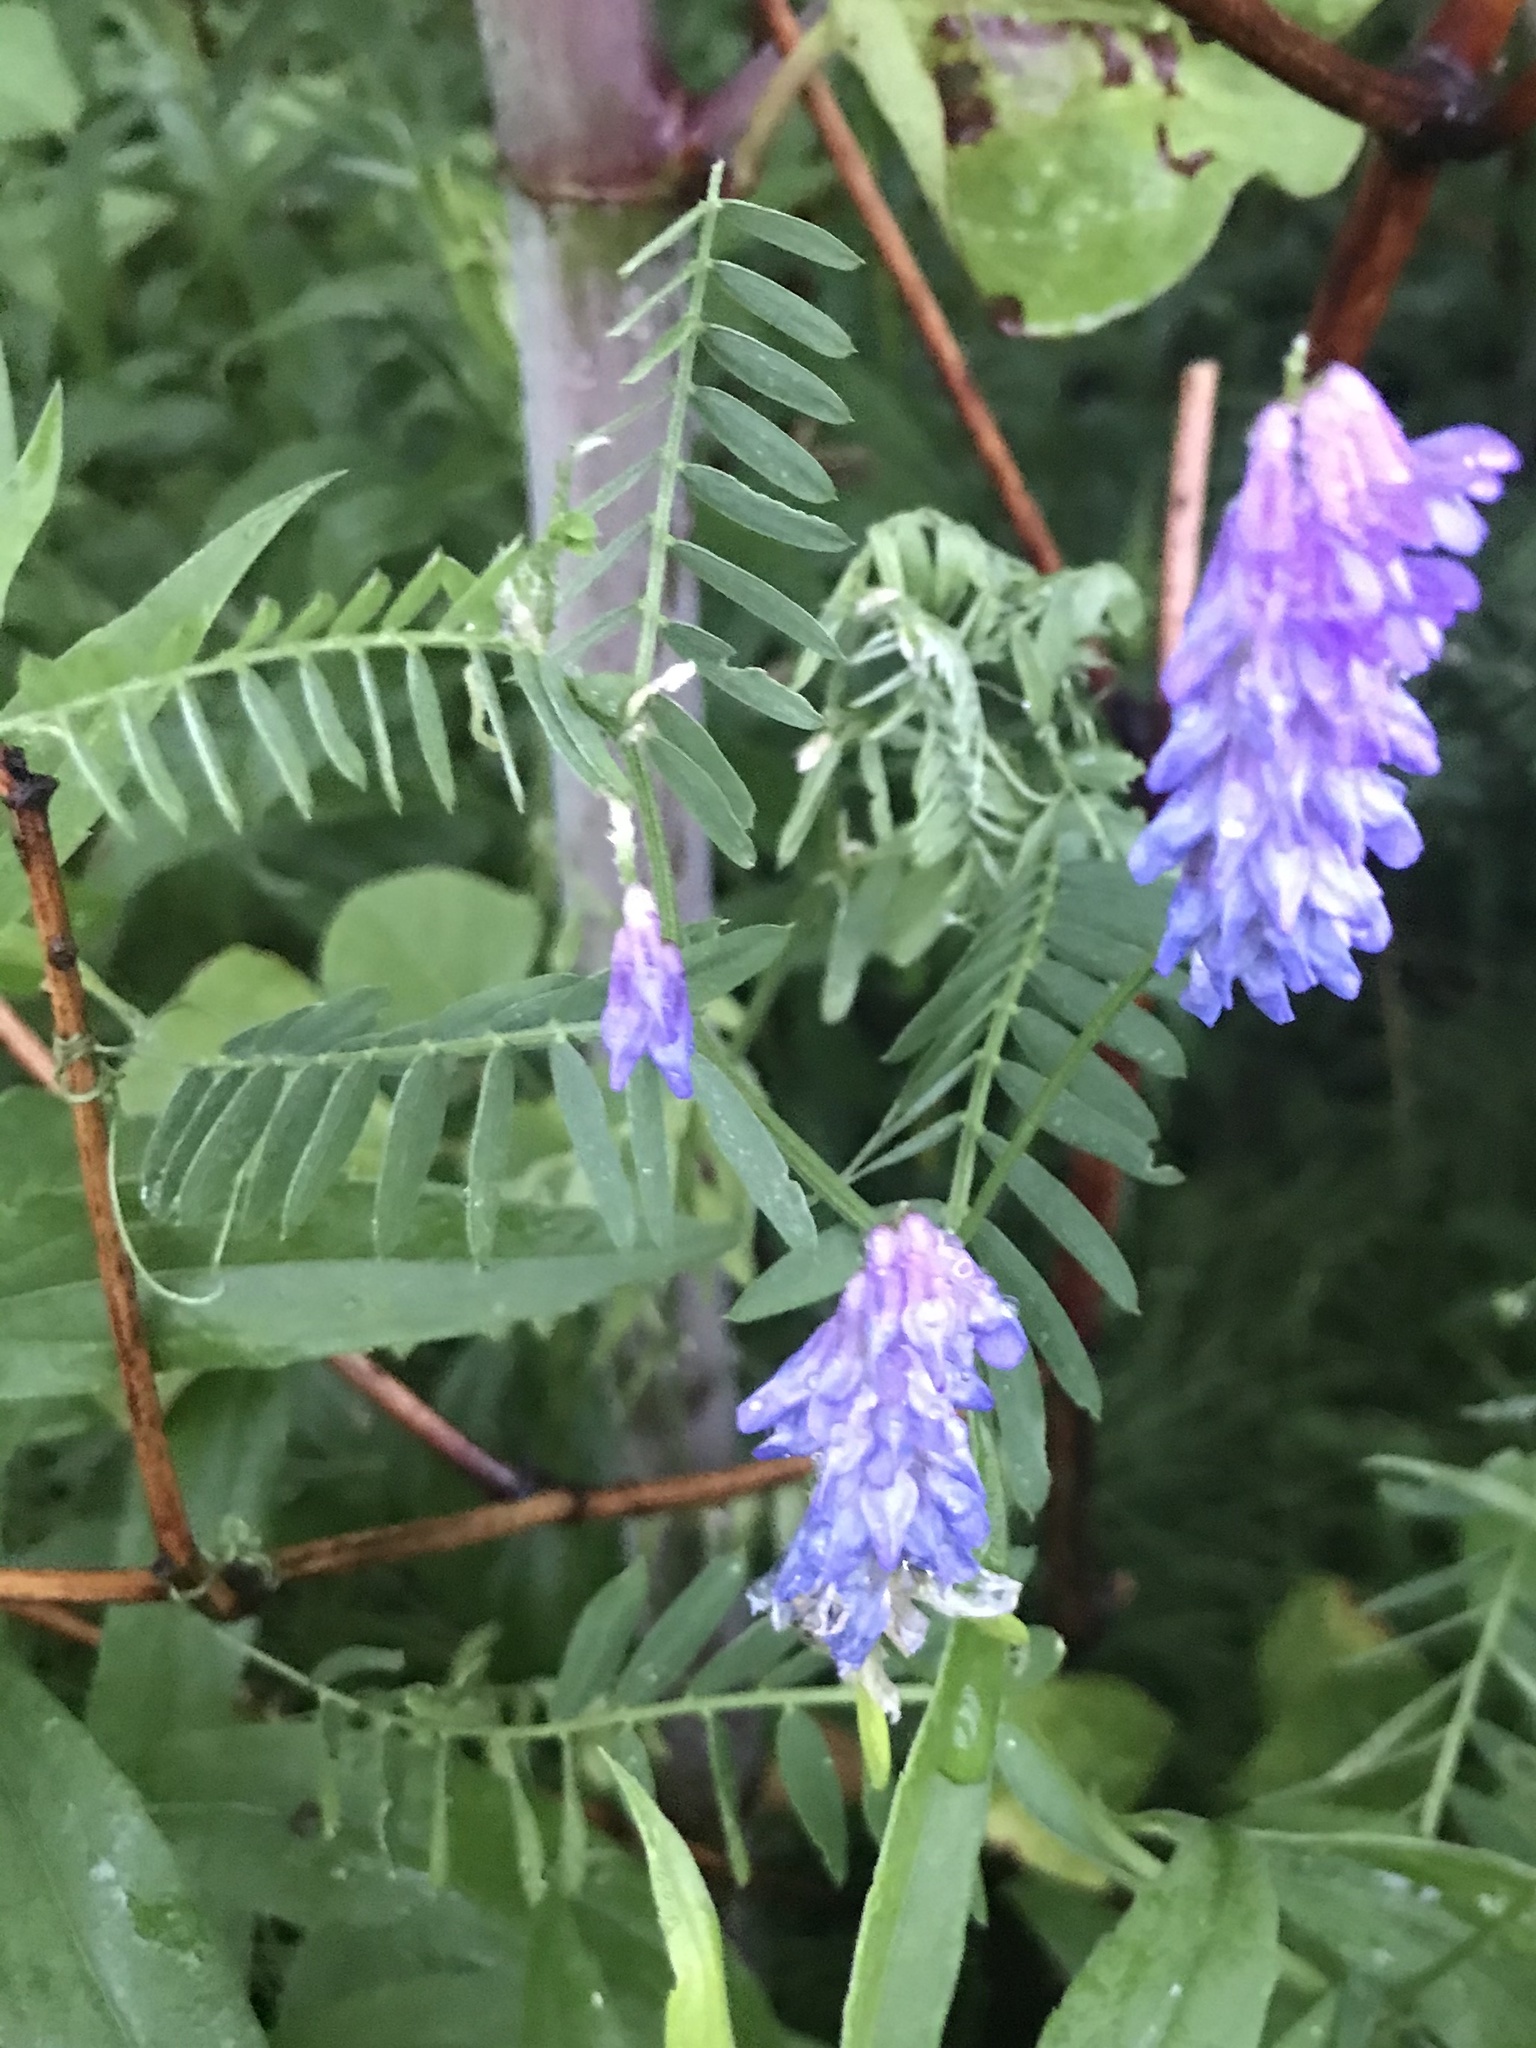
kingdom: Plantae
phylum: Tracheophyta
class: Magnoliopsida
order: Fabales
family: Fabaceae
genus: Vicia
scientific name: Vicia cracca
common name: Bird vetch
